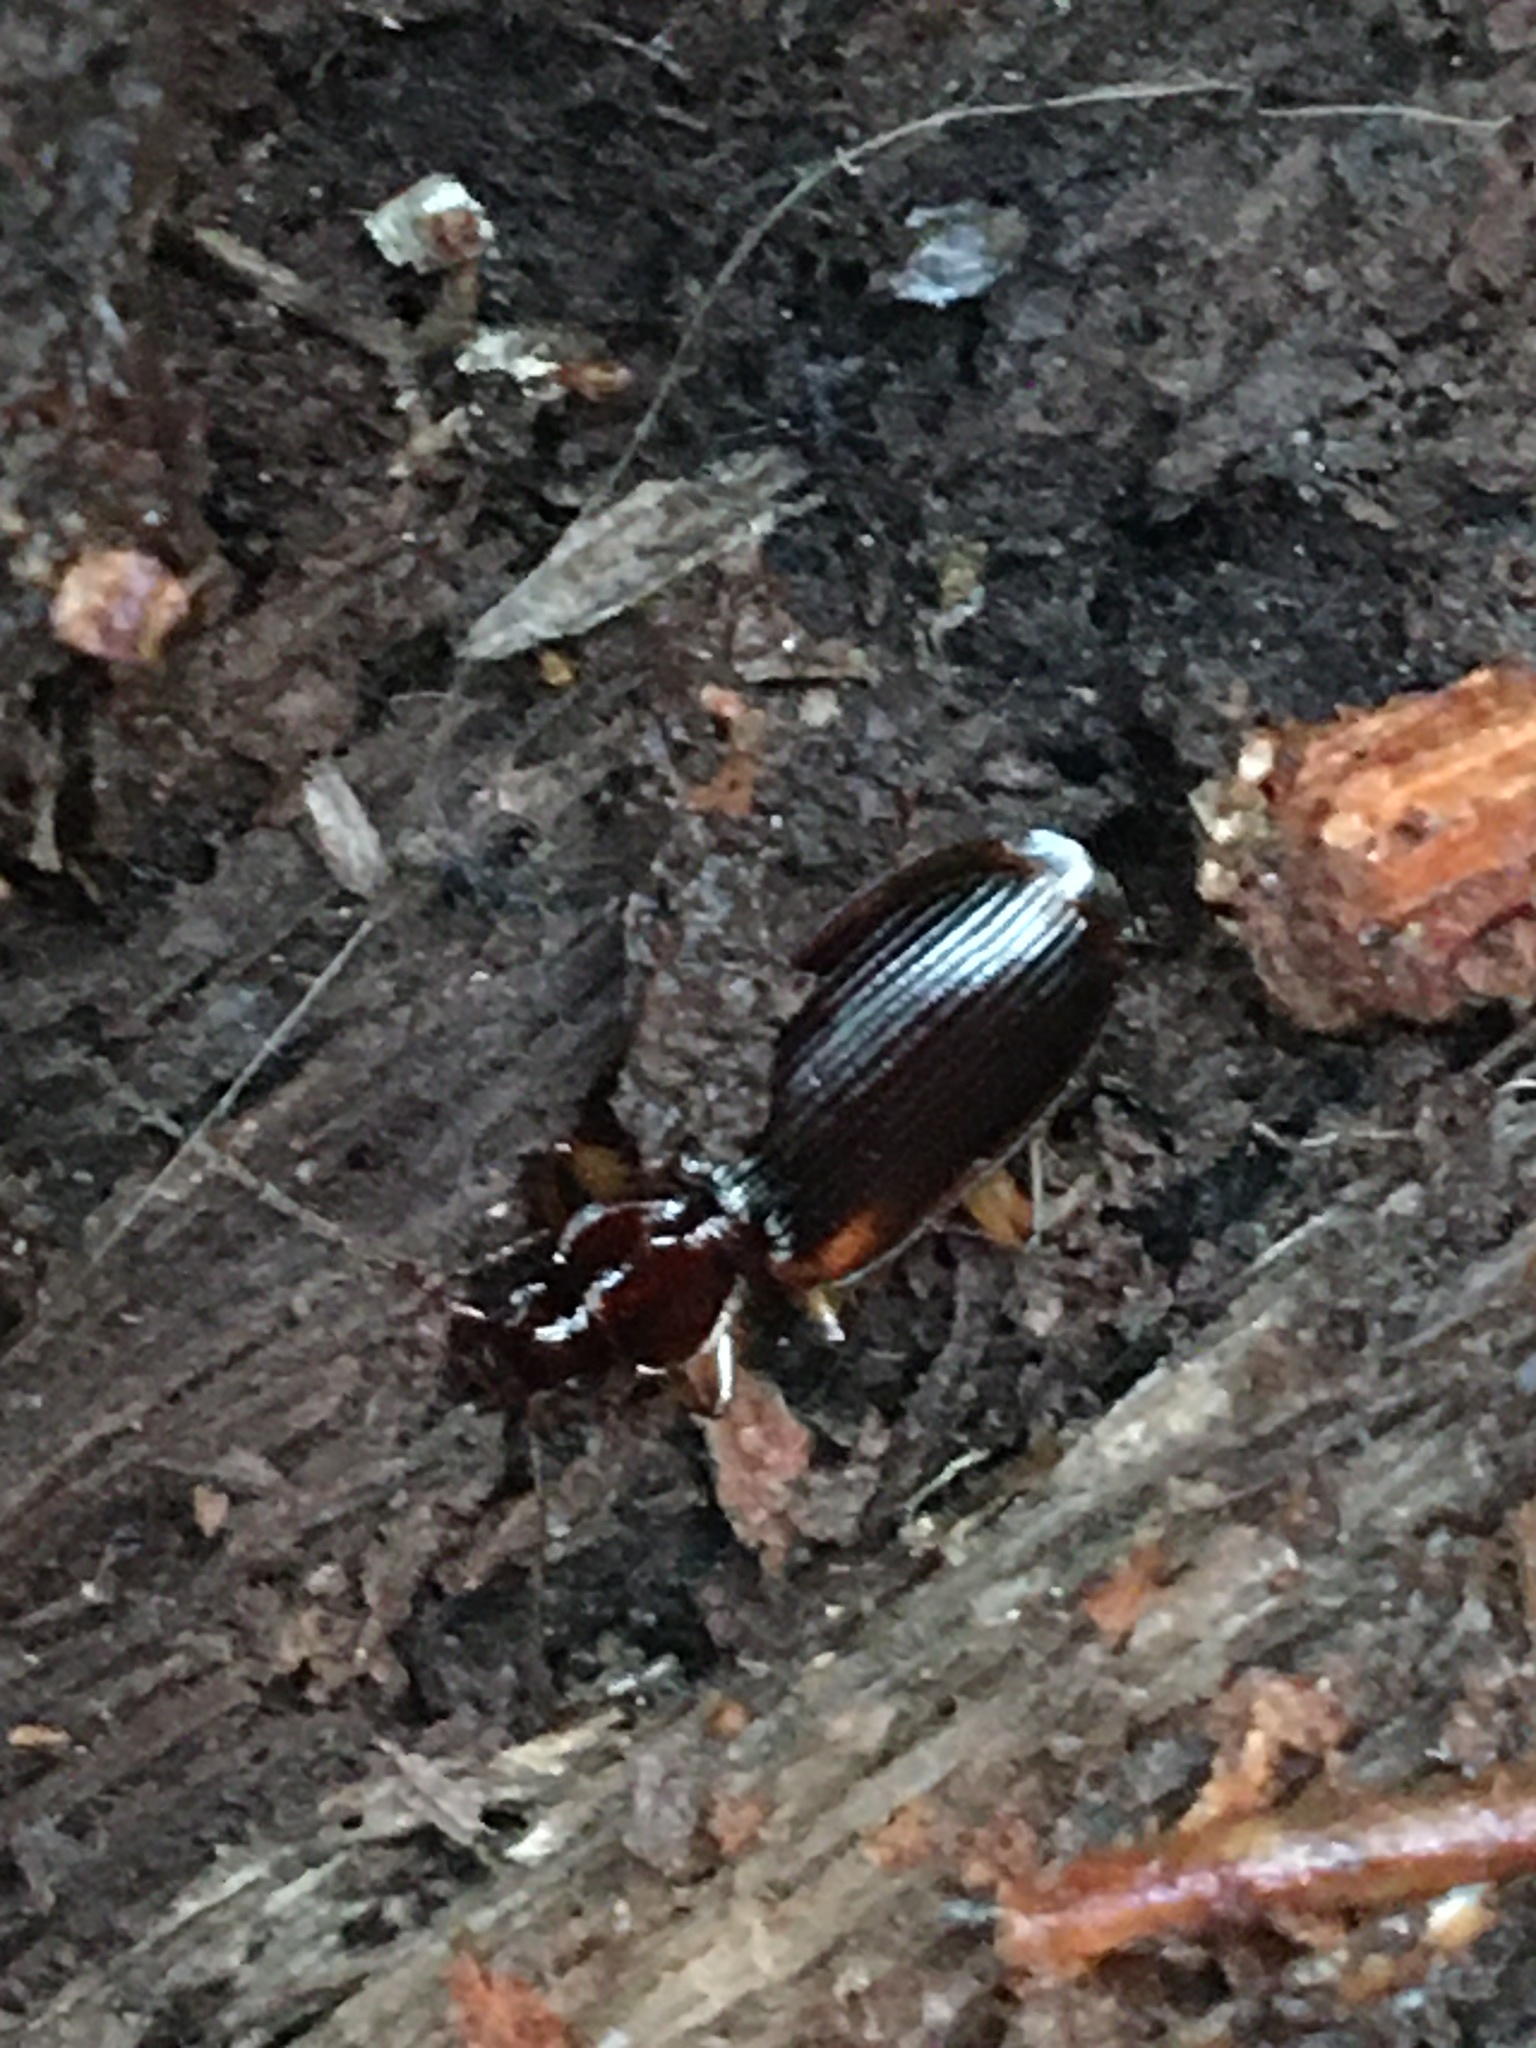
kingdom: Animalia
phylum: Arthropoda
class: Insecta
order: Coleoptera
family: Carabidae
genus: Cymindis
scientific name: Cymindis
